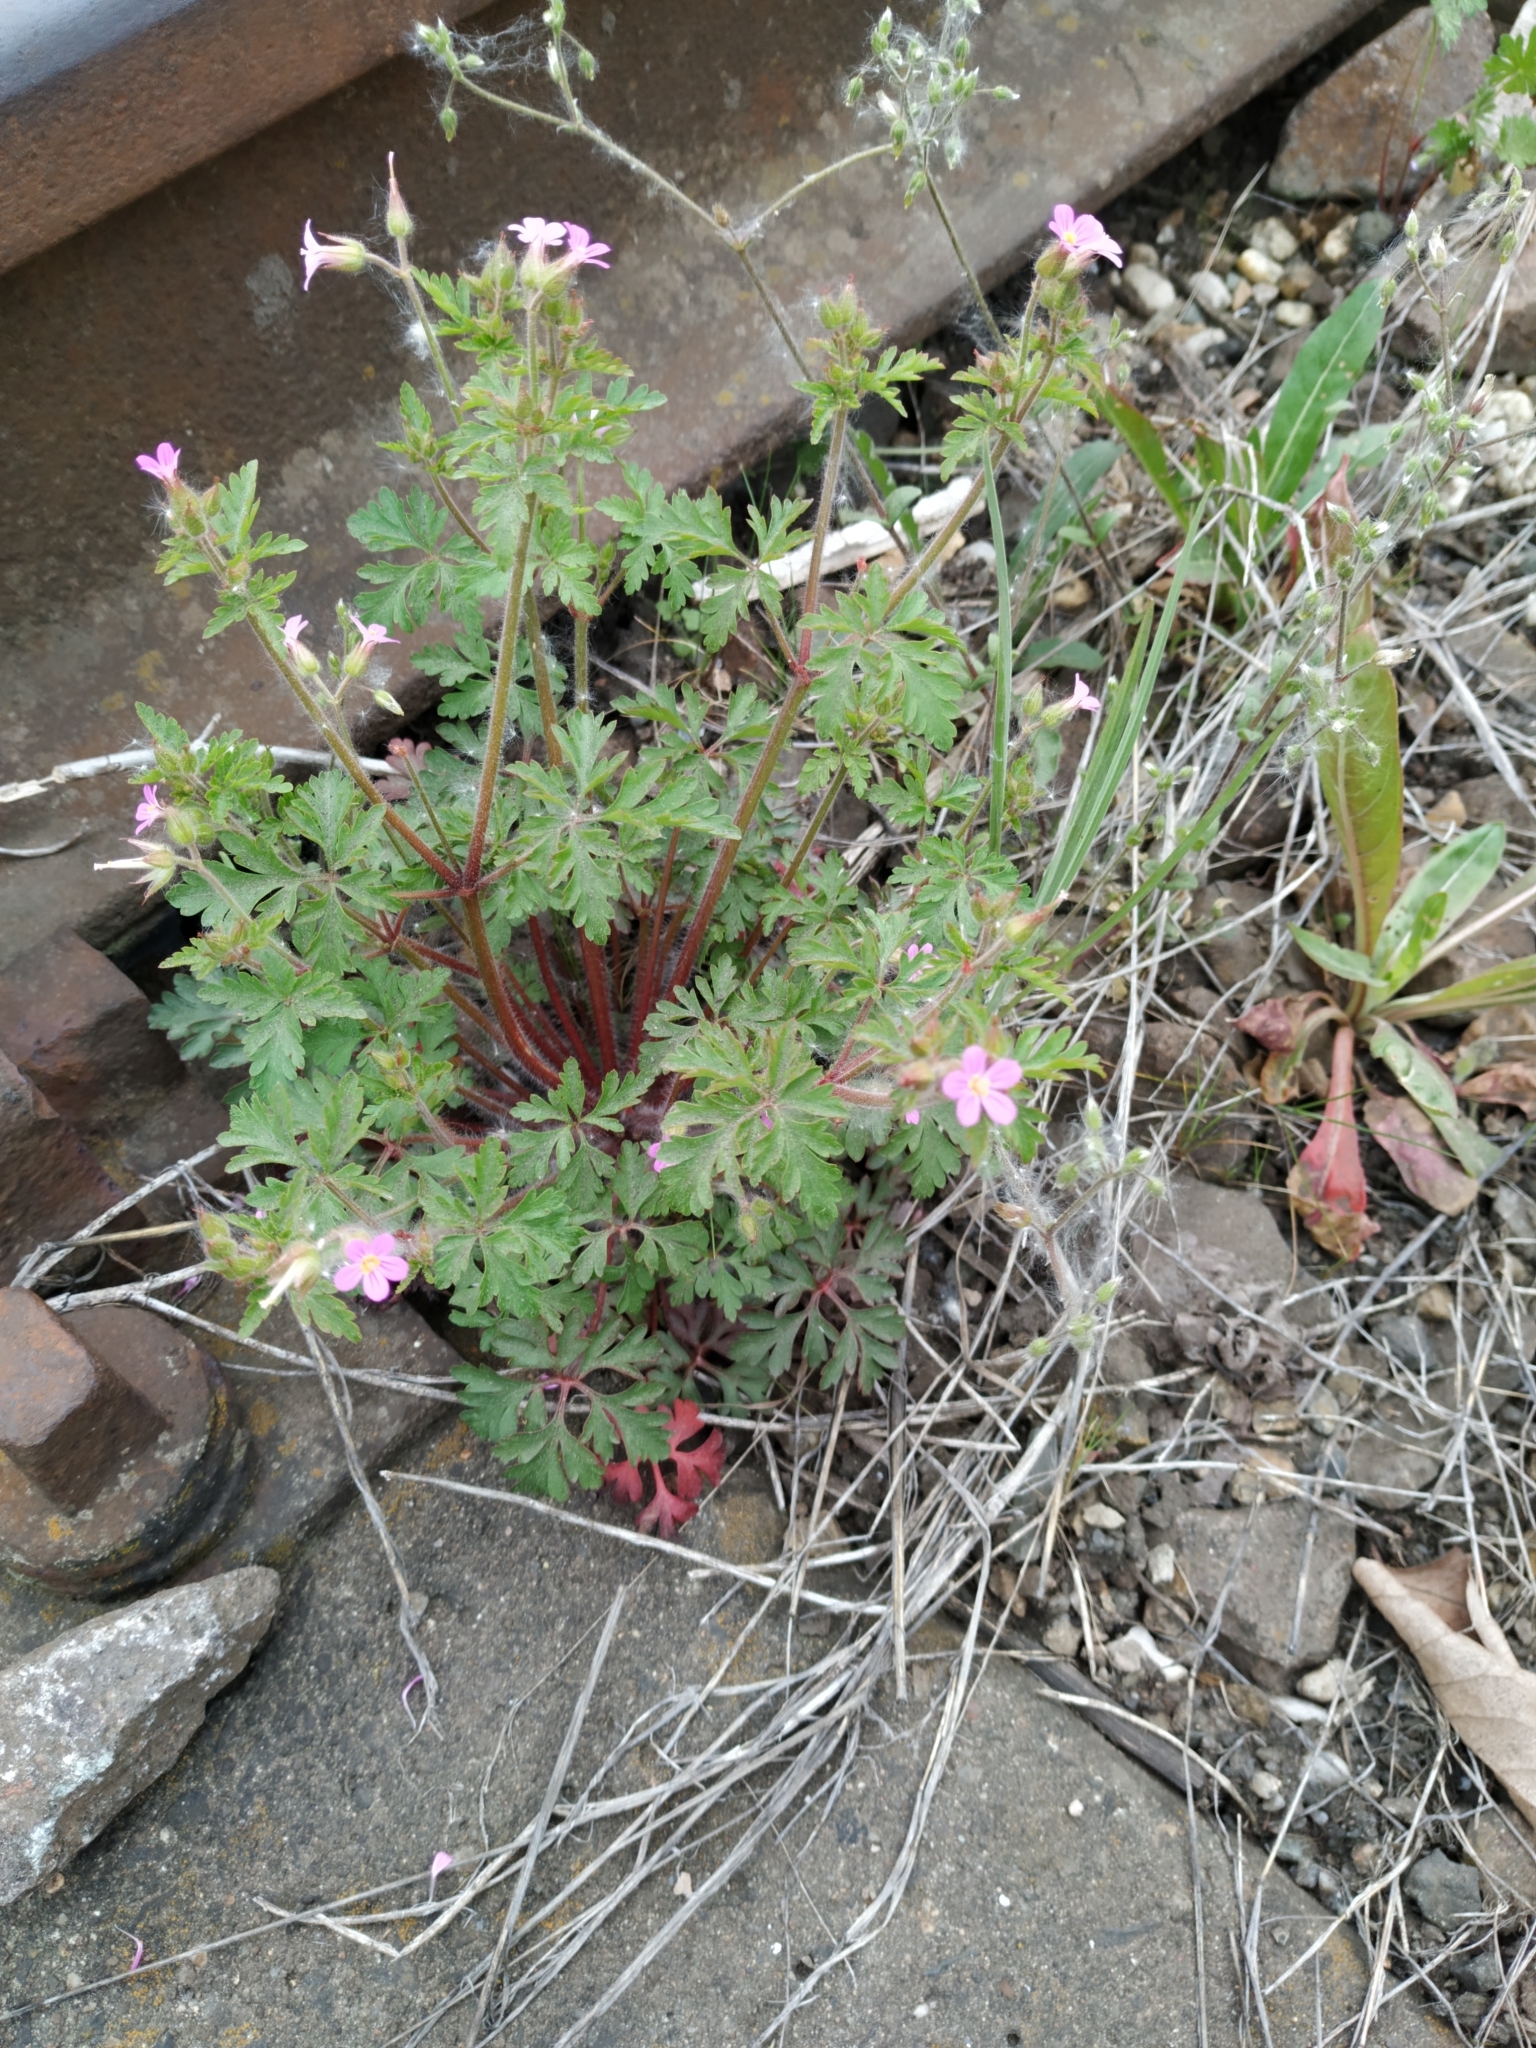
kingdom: Plantae
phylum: Tracheophyta
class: Magnoliopsida
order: Geraniales
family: Geraniaceae
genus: Geranium
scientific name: Geranium purpureum
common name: Little-robin
